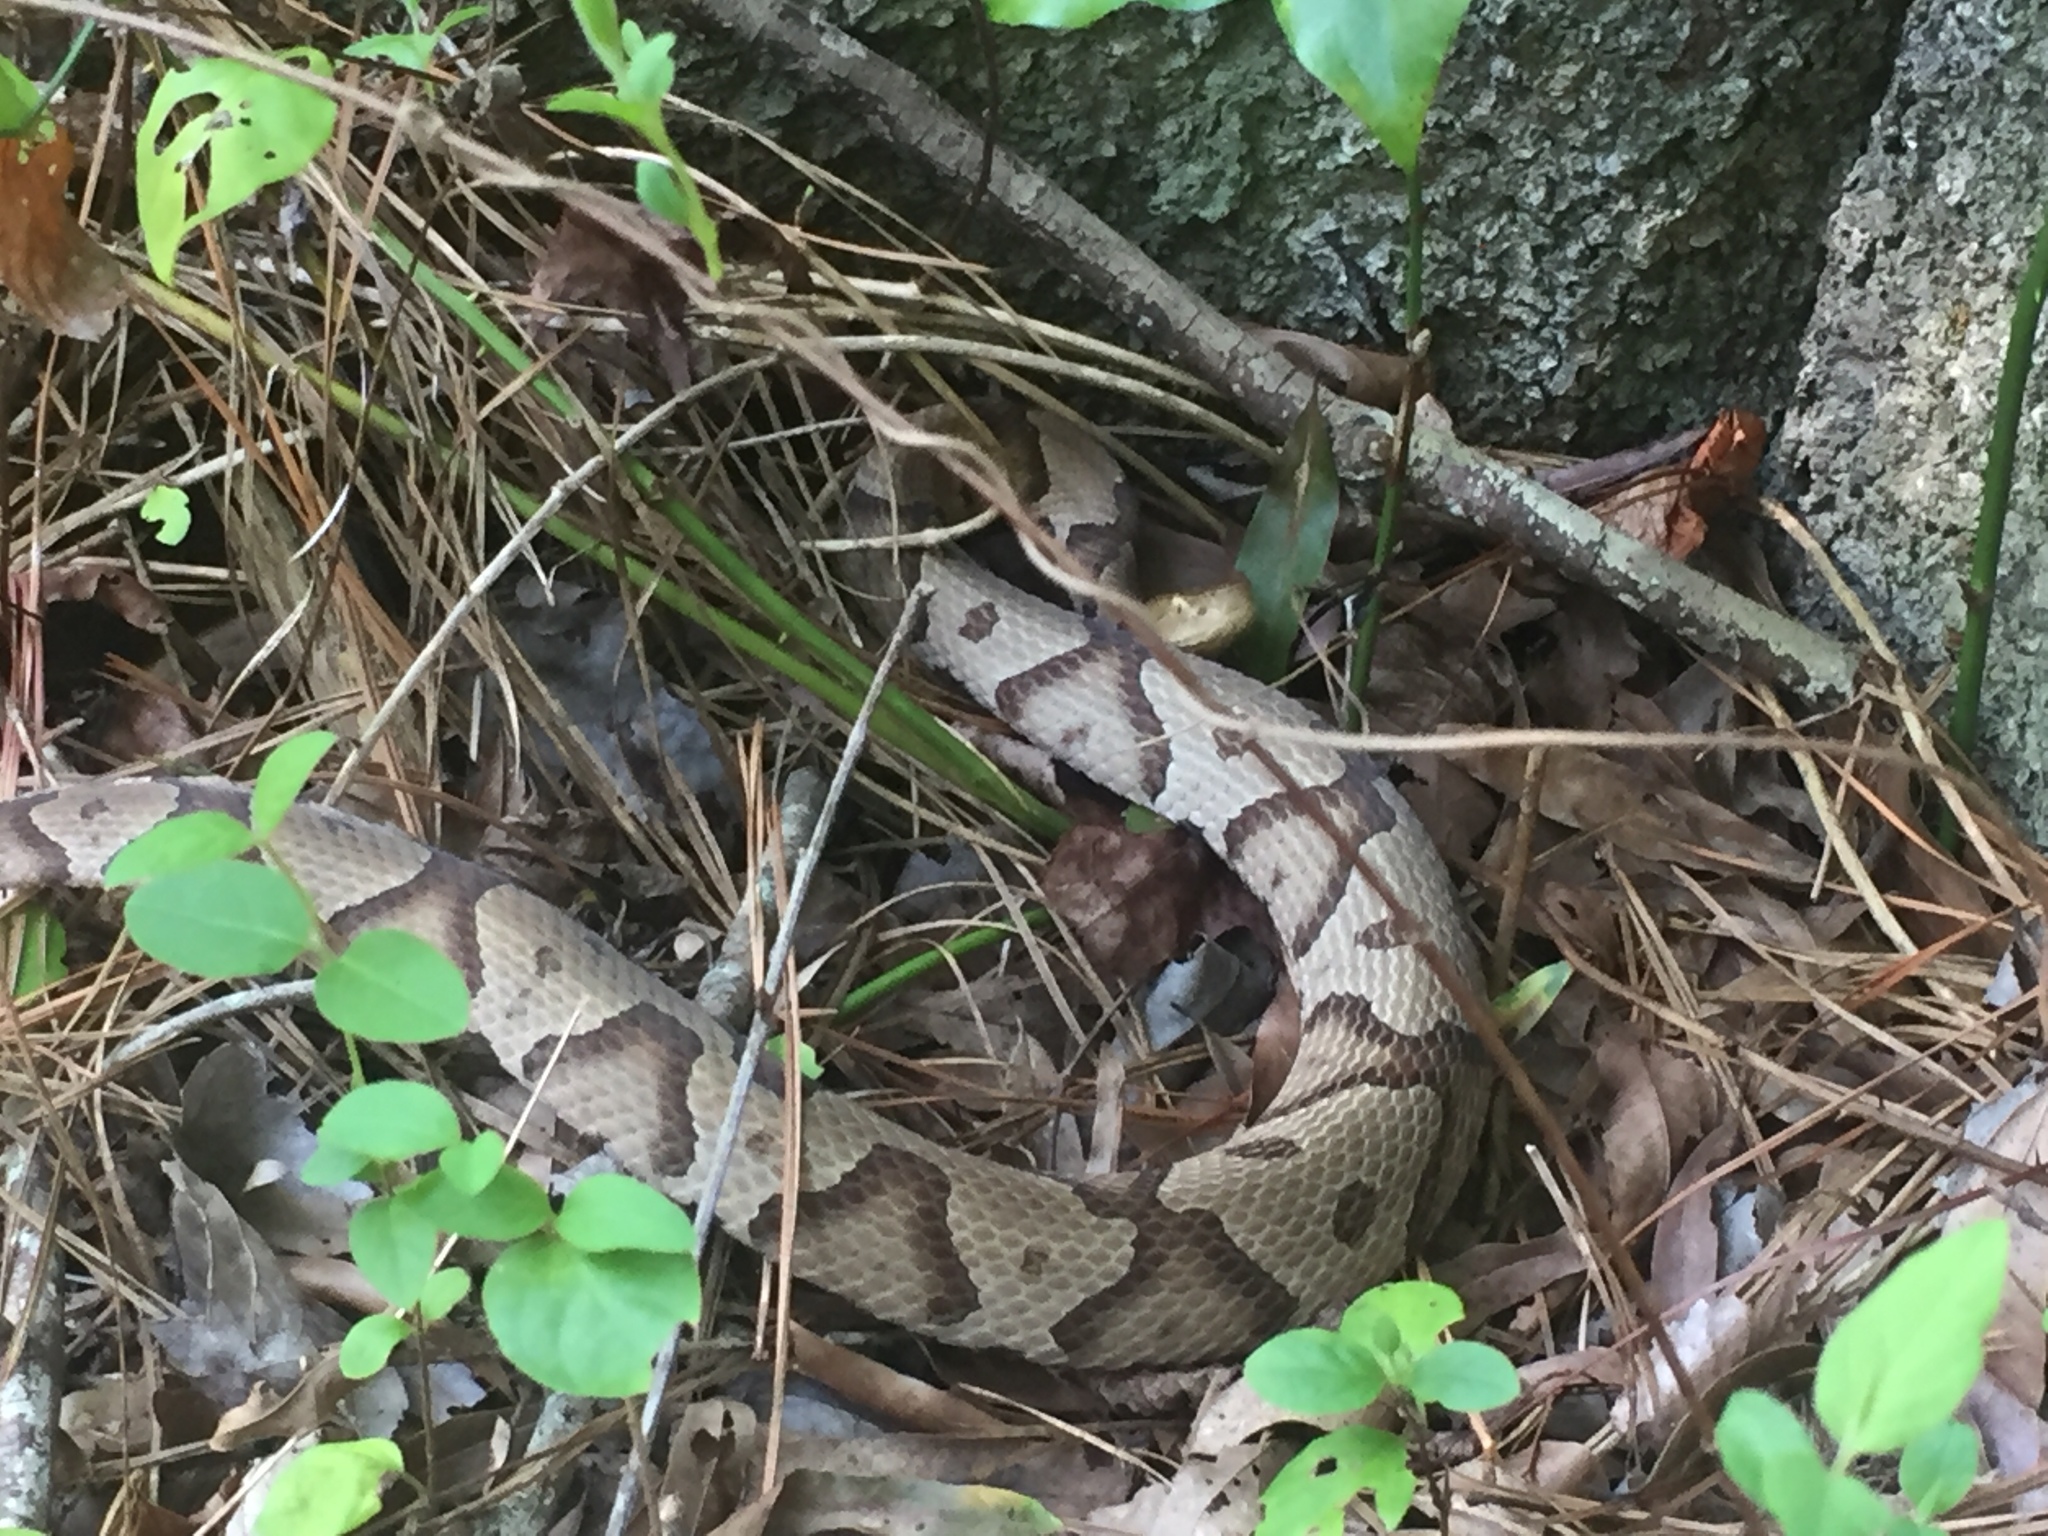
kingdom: Animalia
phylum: Chordata
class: Squamata
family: Viperidae
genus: Agkistrodon
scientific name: Agkistrodon contortrix
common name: Northern copperhead
